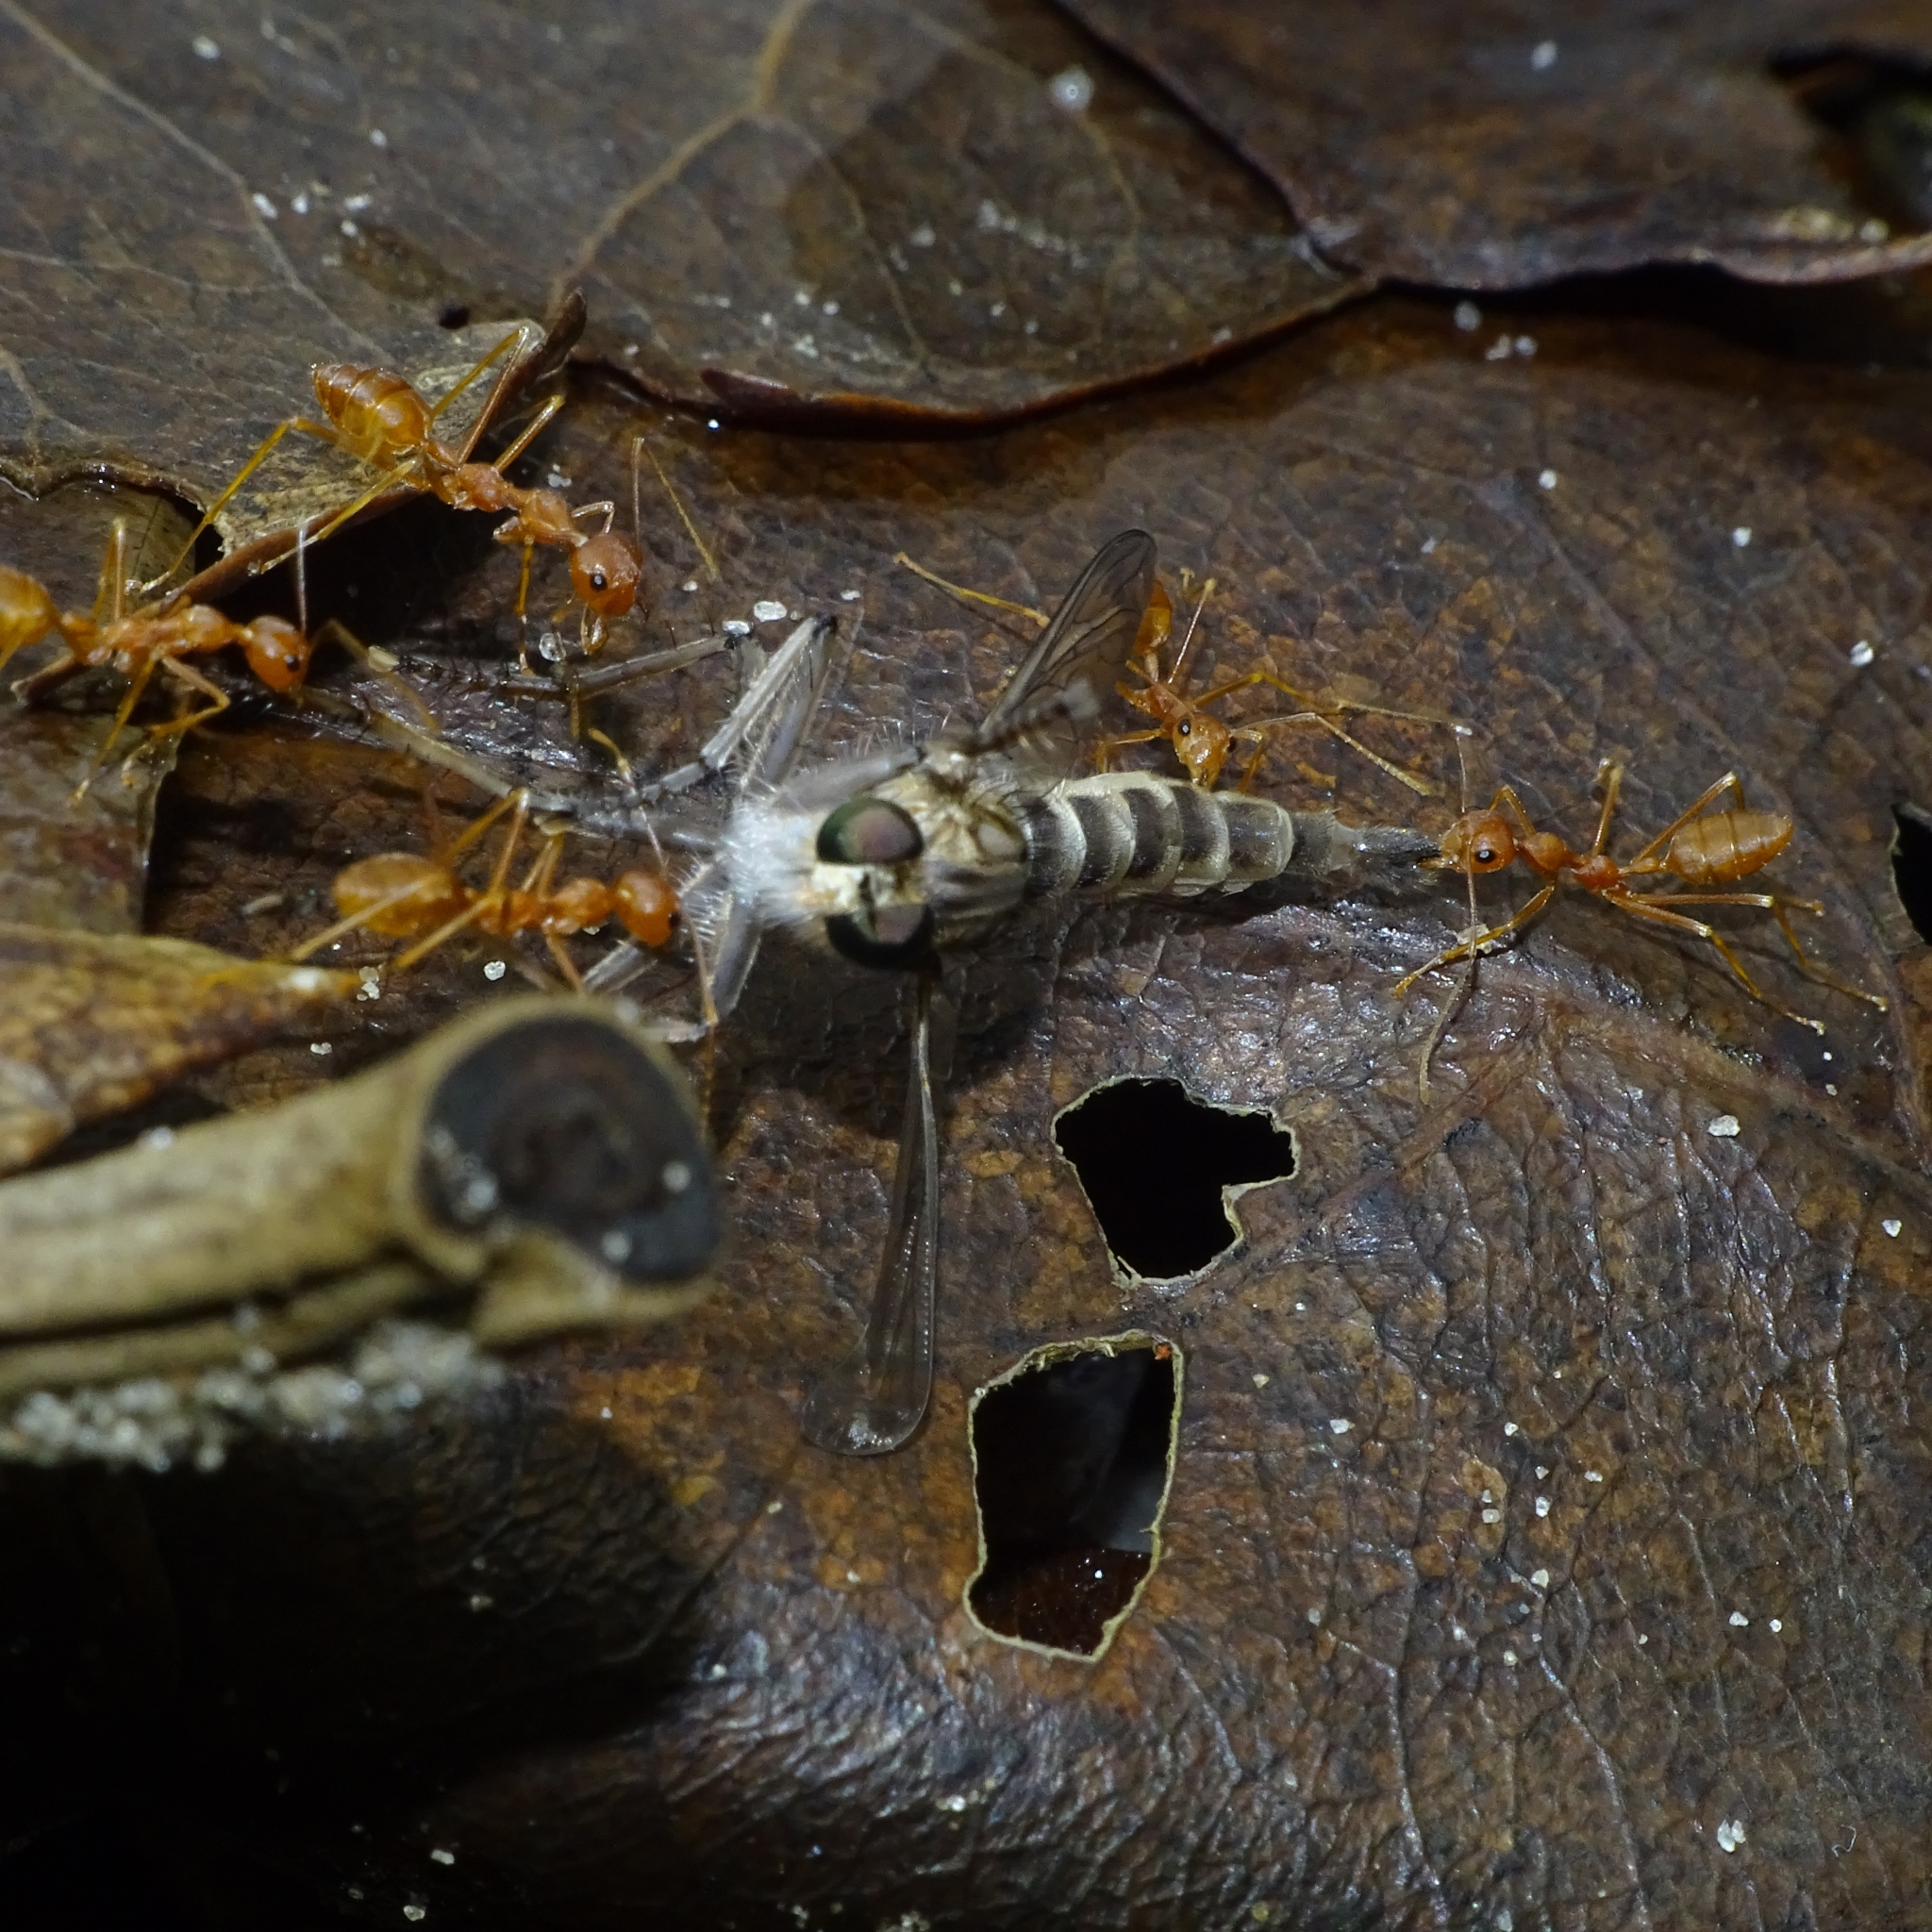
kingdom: Animalia
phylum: Arthropoda
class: Insecta
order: Hymenoptera
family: Formicidae
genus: Oecophylla
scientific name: Oecophylla smaragdina
